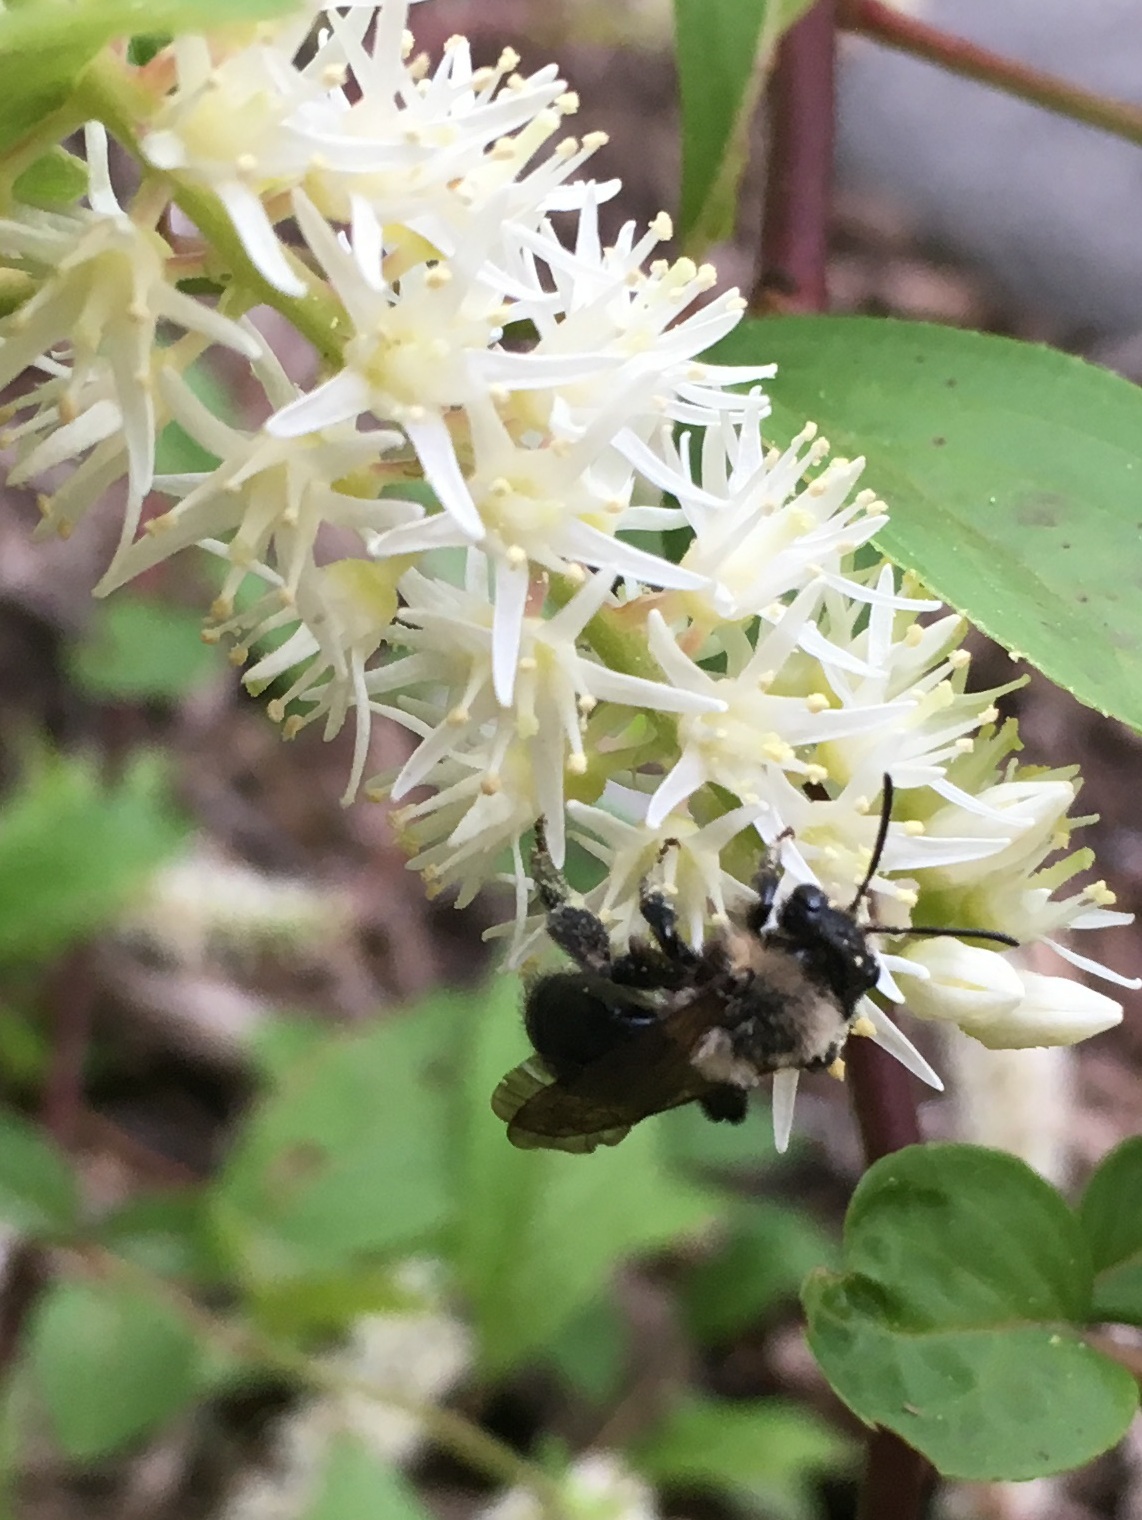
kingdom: Animalia
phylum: Arthropoda
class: Insecta
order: Hymenoptera
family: Andrenidae
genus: Andrena
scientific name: Andrena carlini
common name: Carlin's mining bee
